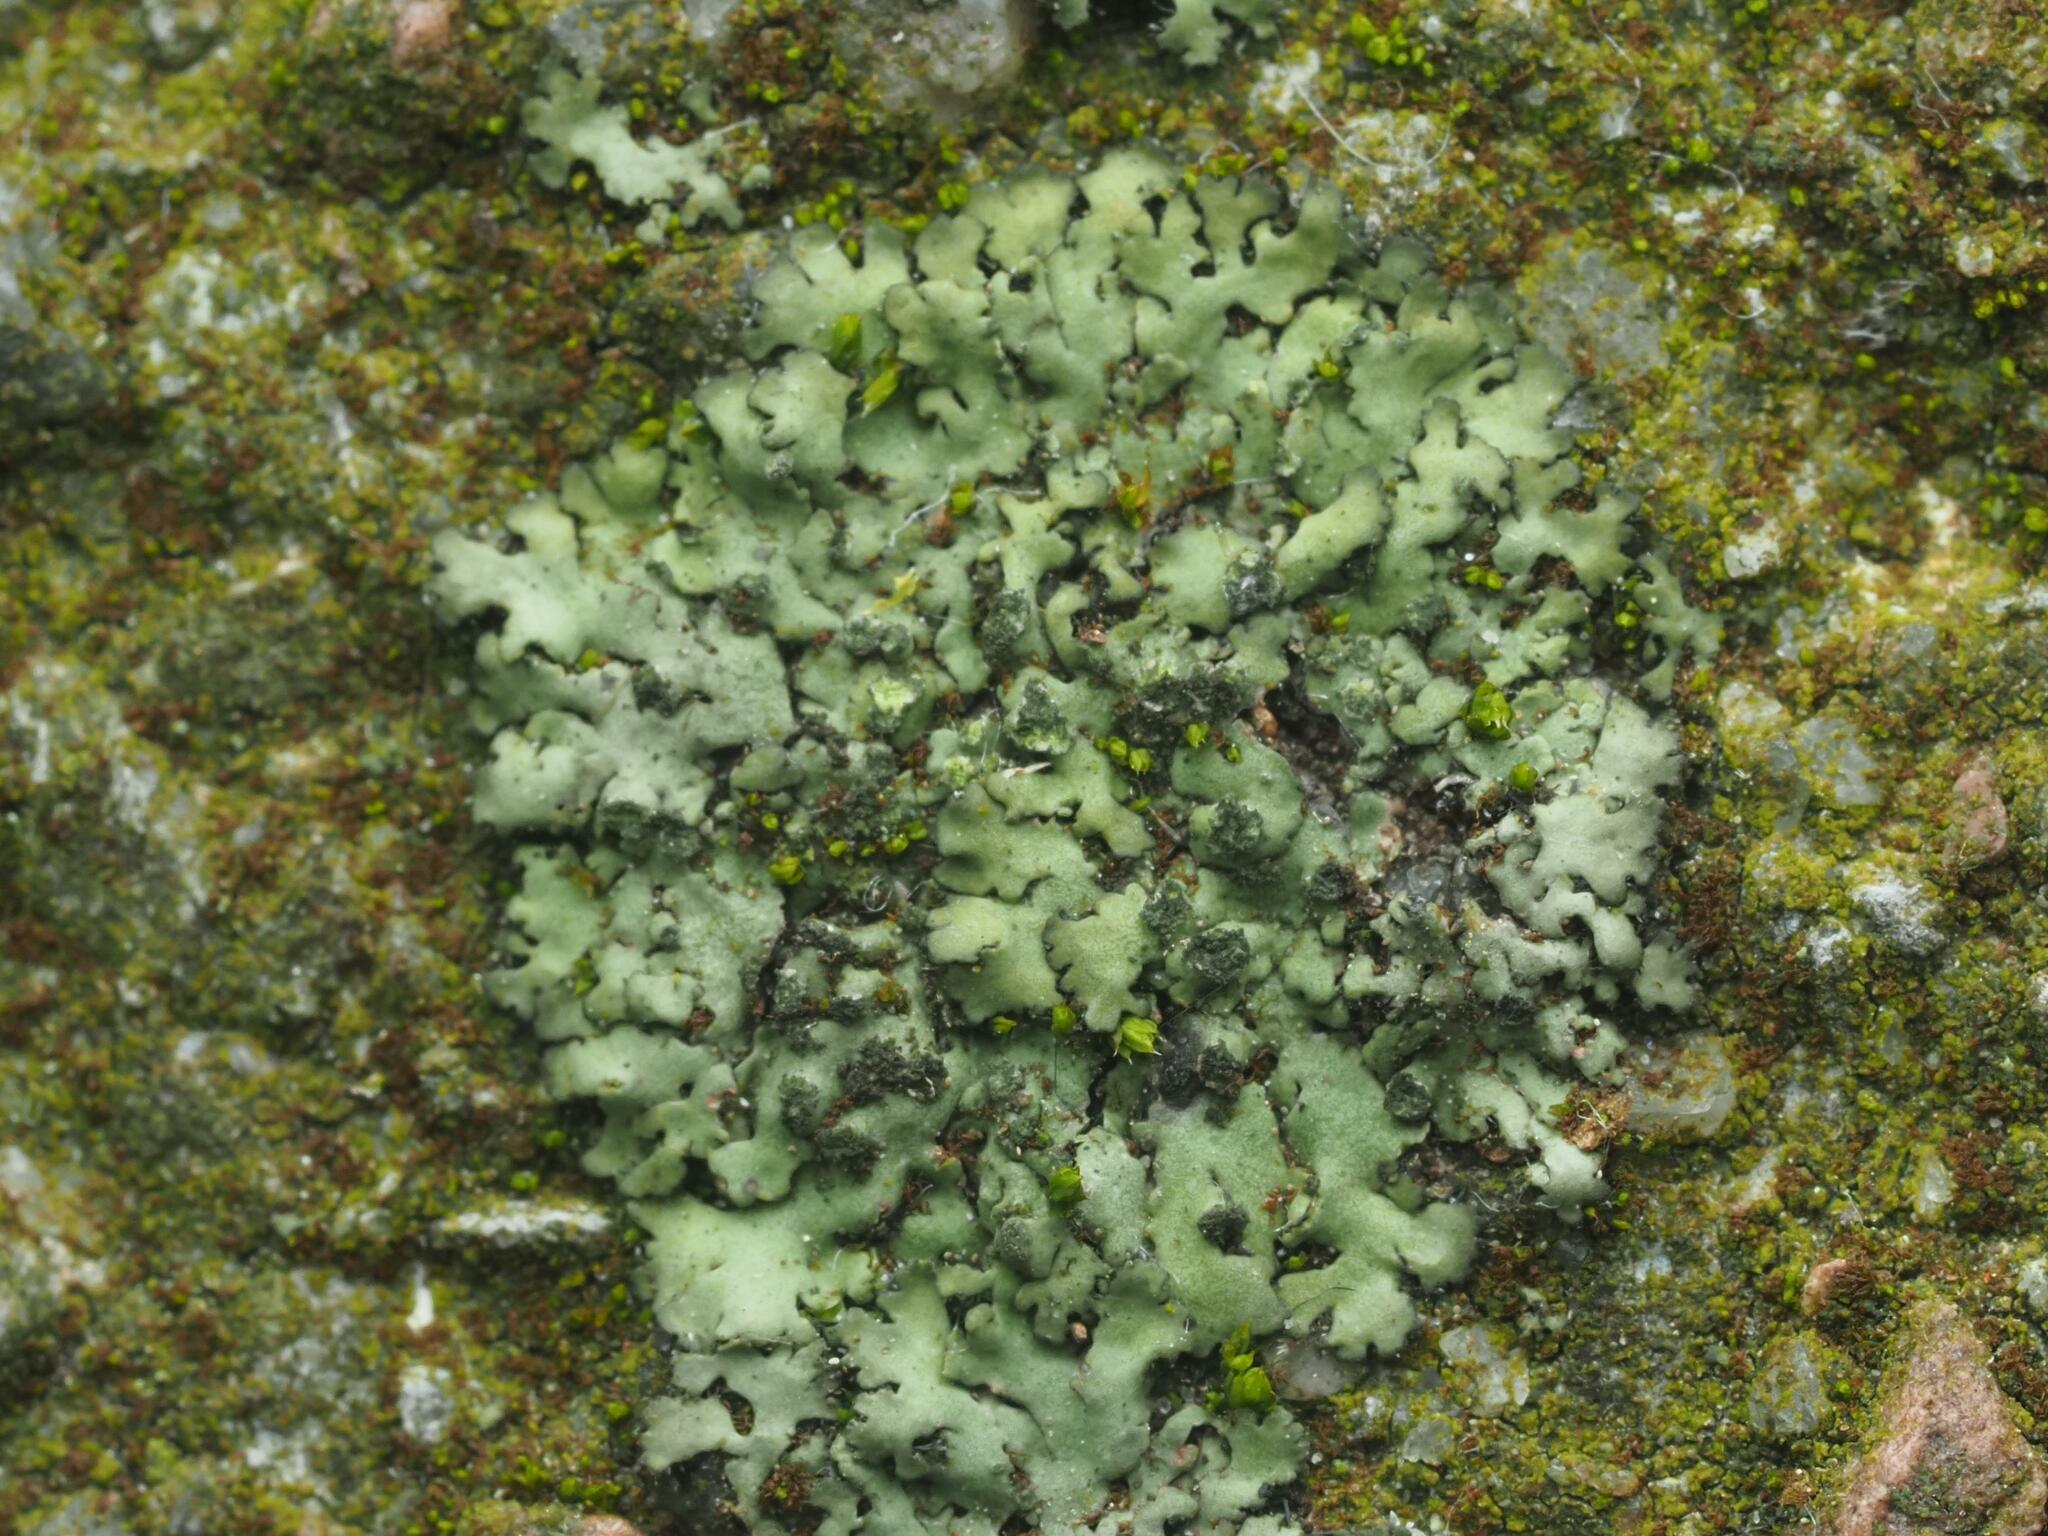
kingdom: Fungi
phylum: Ascomycota
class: Lecanoromycetes
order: Caliciales
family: Physciaceae
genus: Phaeophyscia
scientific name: Phaeophyscia orbicularis
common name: Mealy shadow lichen
